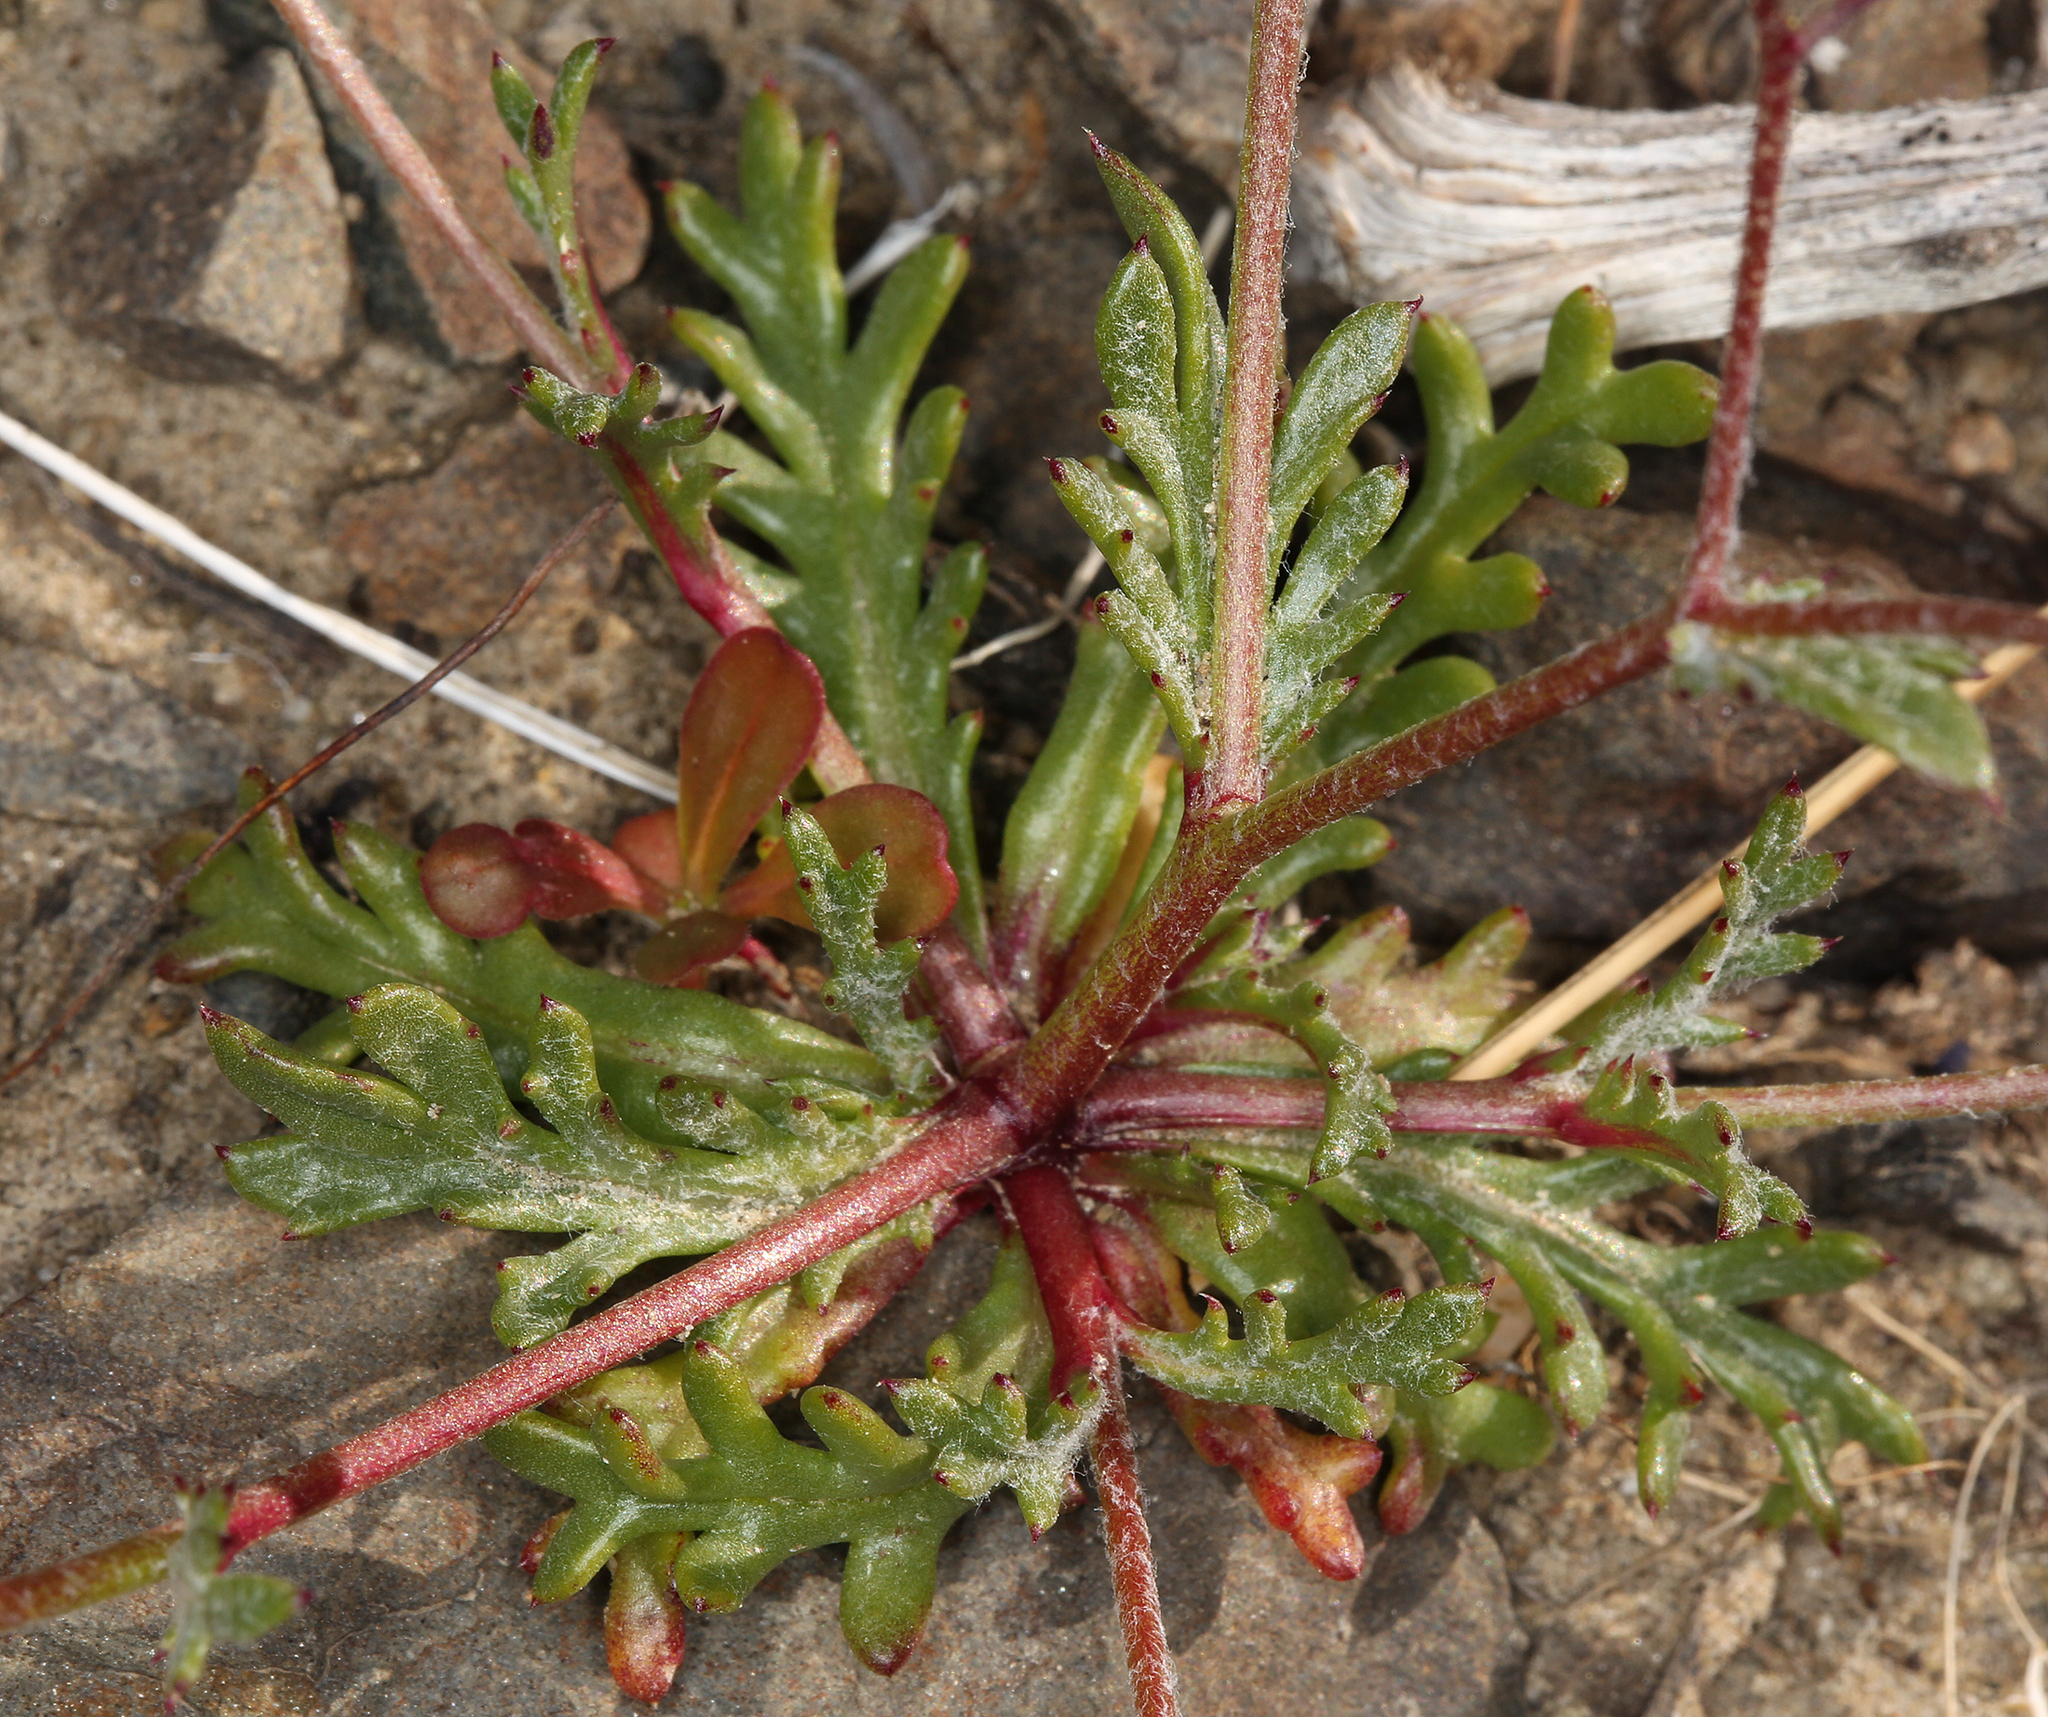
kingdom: Plantae
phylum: Tracheophyta
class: Magnoliopsida
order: Ericales
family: Polemoniaceae
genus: Gilia
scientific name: Gilia transmontana
